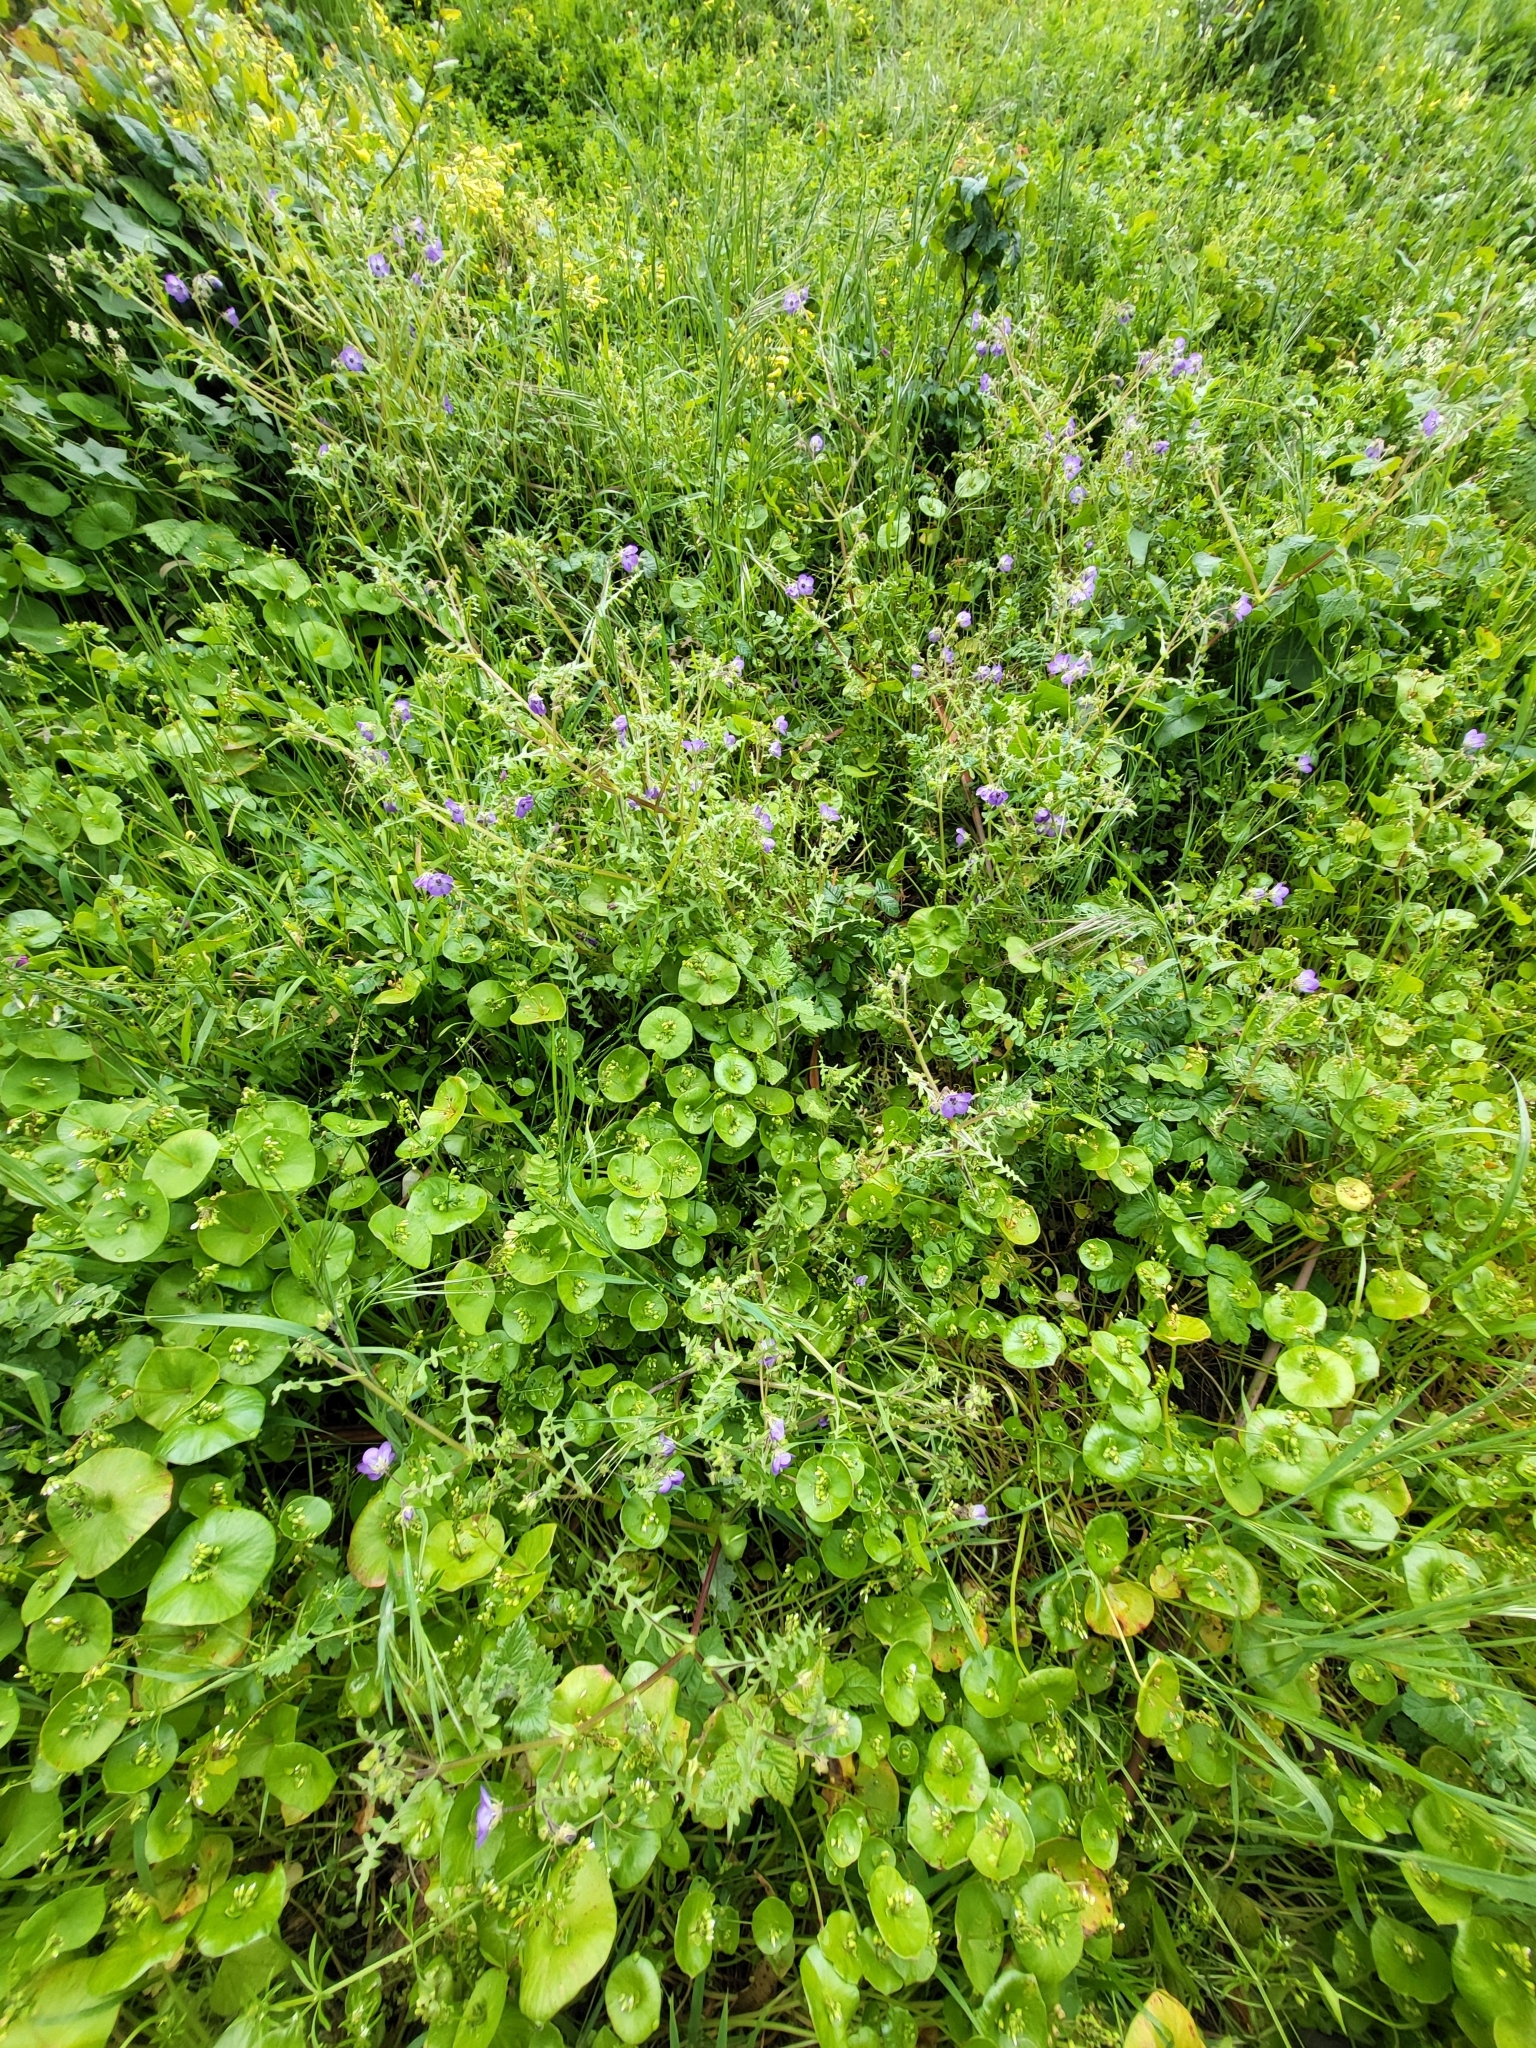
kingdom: Plantae
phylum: Tracheophyta
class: Magnoliopsida
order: Boraginales
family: Hydrophyllaceae
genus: Pholistoma
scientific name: Pholistoma auritum
